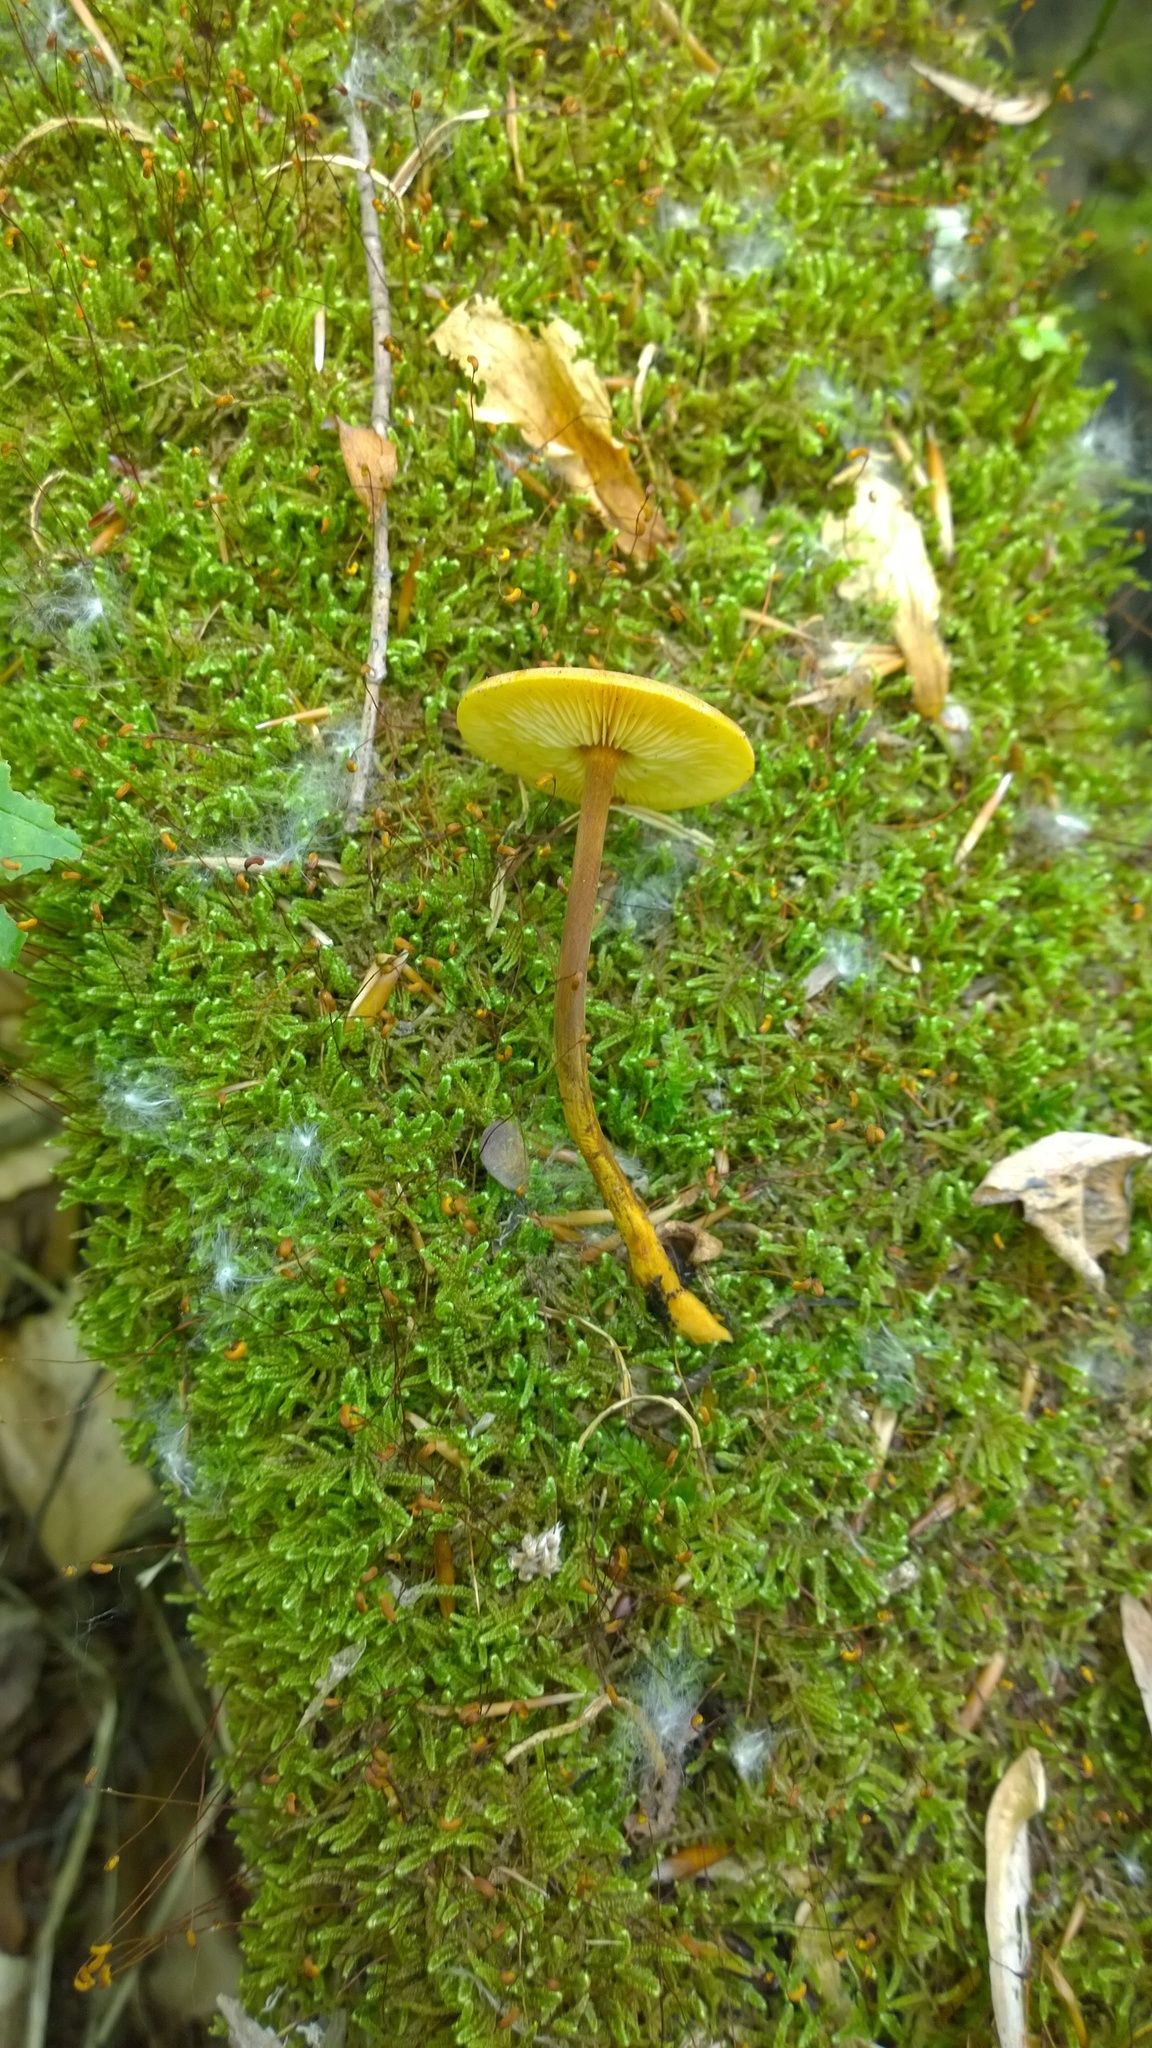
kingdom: Fungi
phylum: Basidiomycota
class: Agaricomycetes
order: Agaricales
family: Mycenaceae
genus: Xeromphalina
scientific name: Xeromphalina tenuipes
